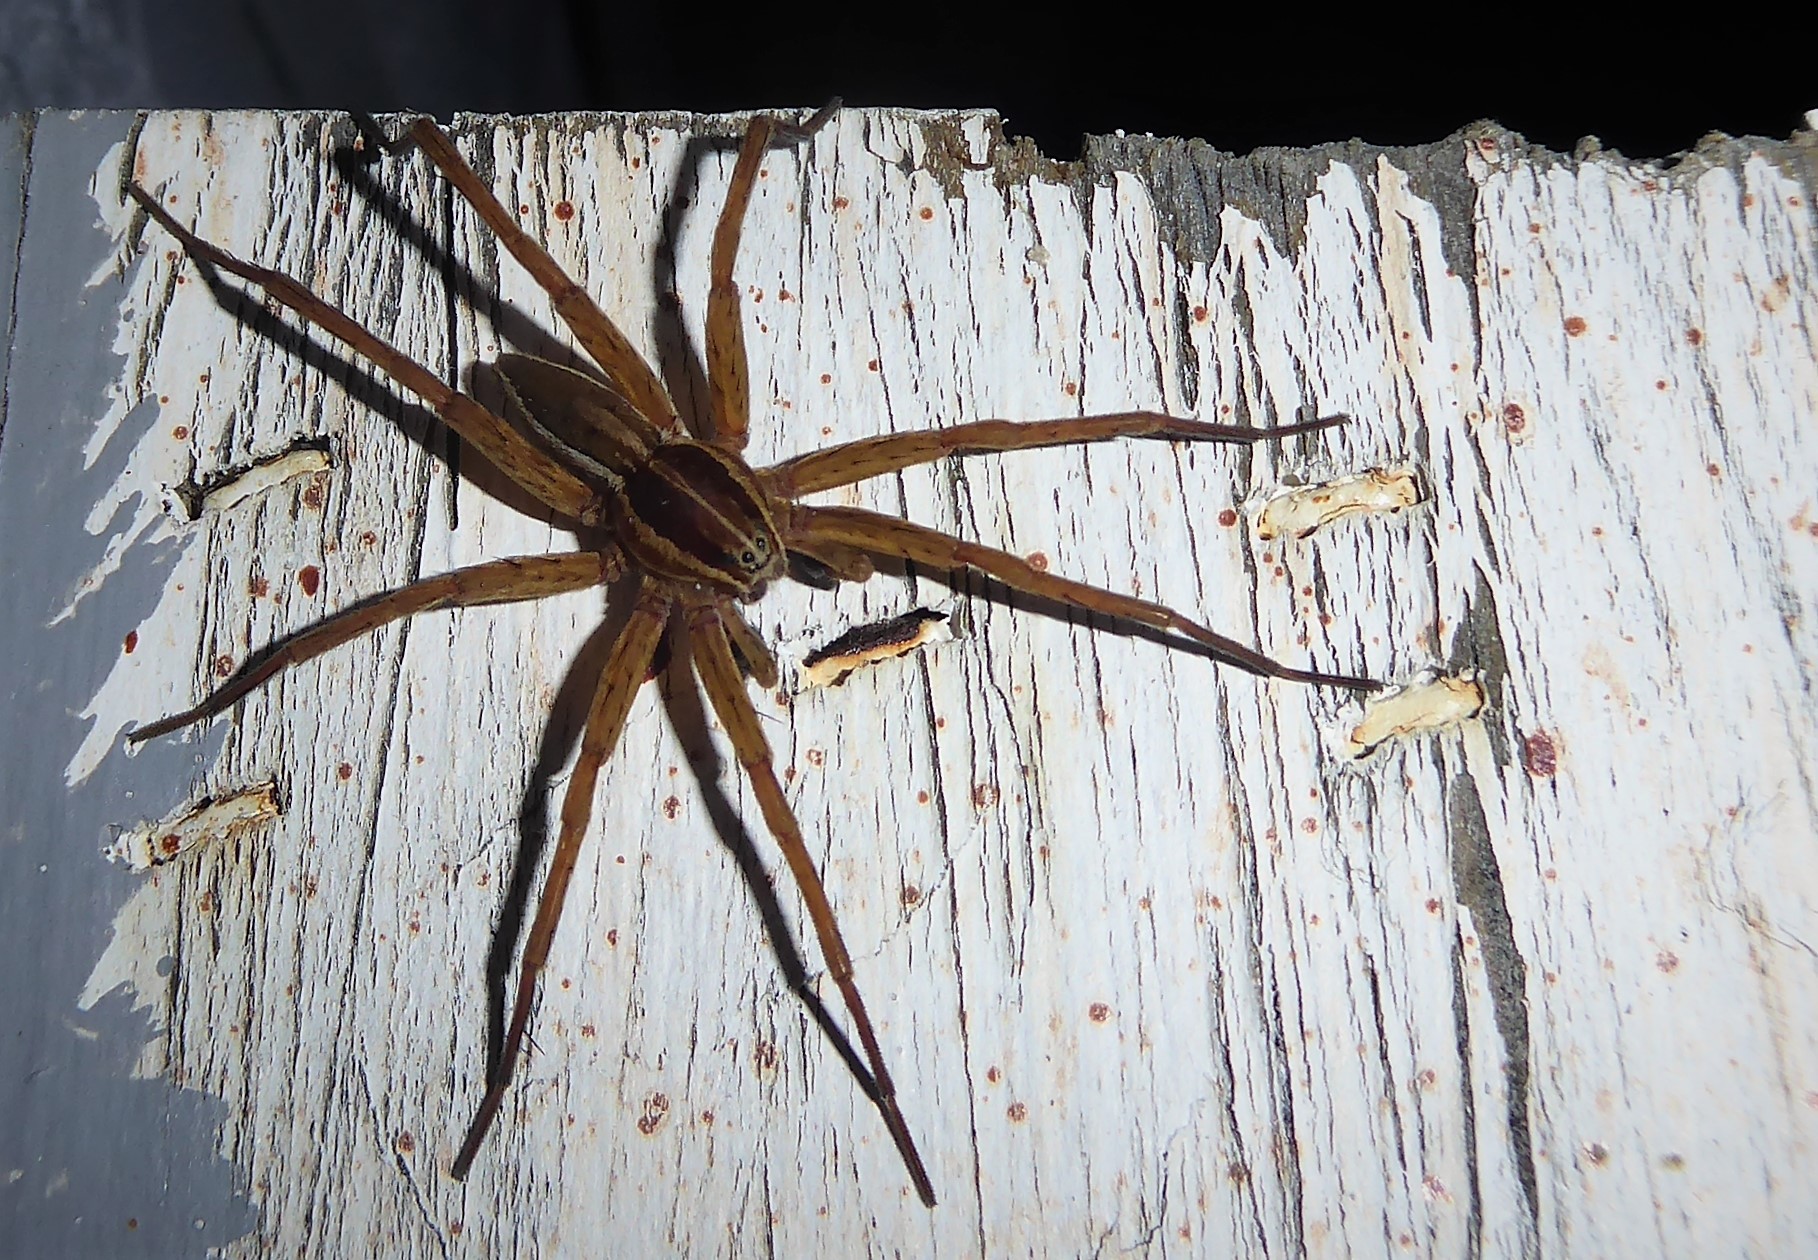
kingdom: Animalia
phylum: Arthropoda
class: Arachnida
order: Araneae
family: Pisauridae
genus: Dolomedes
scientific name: Dolomedes minor
